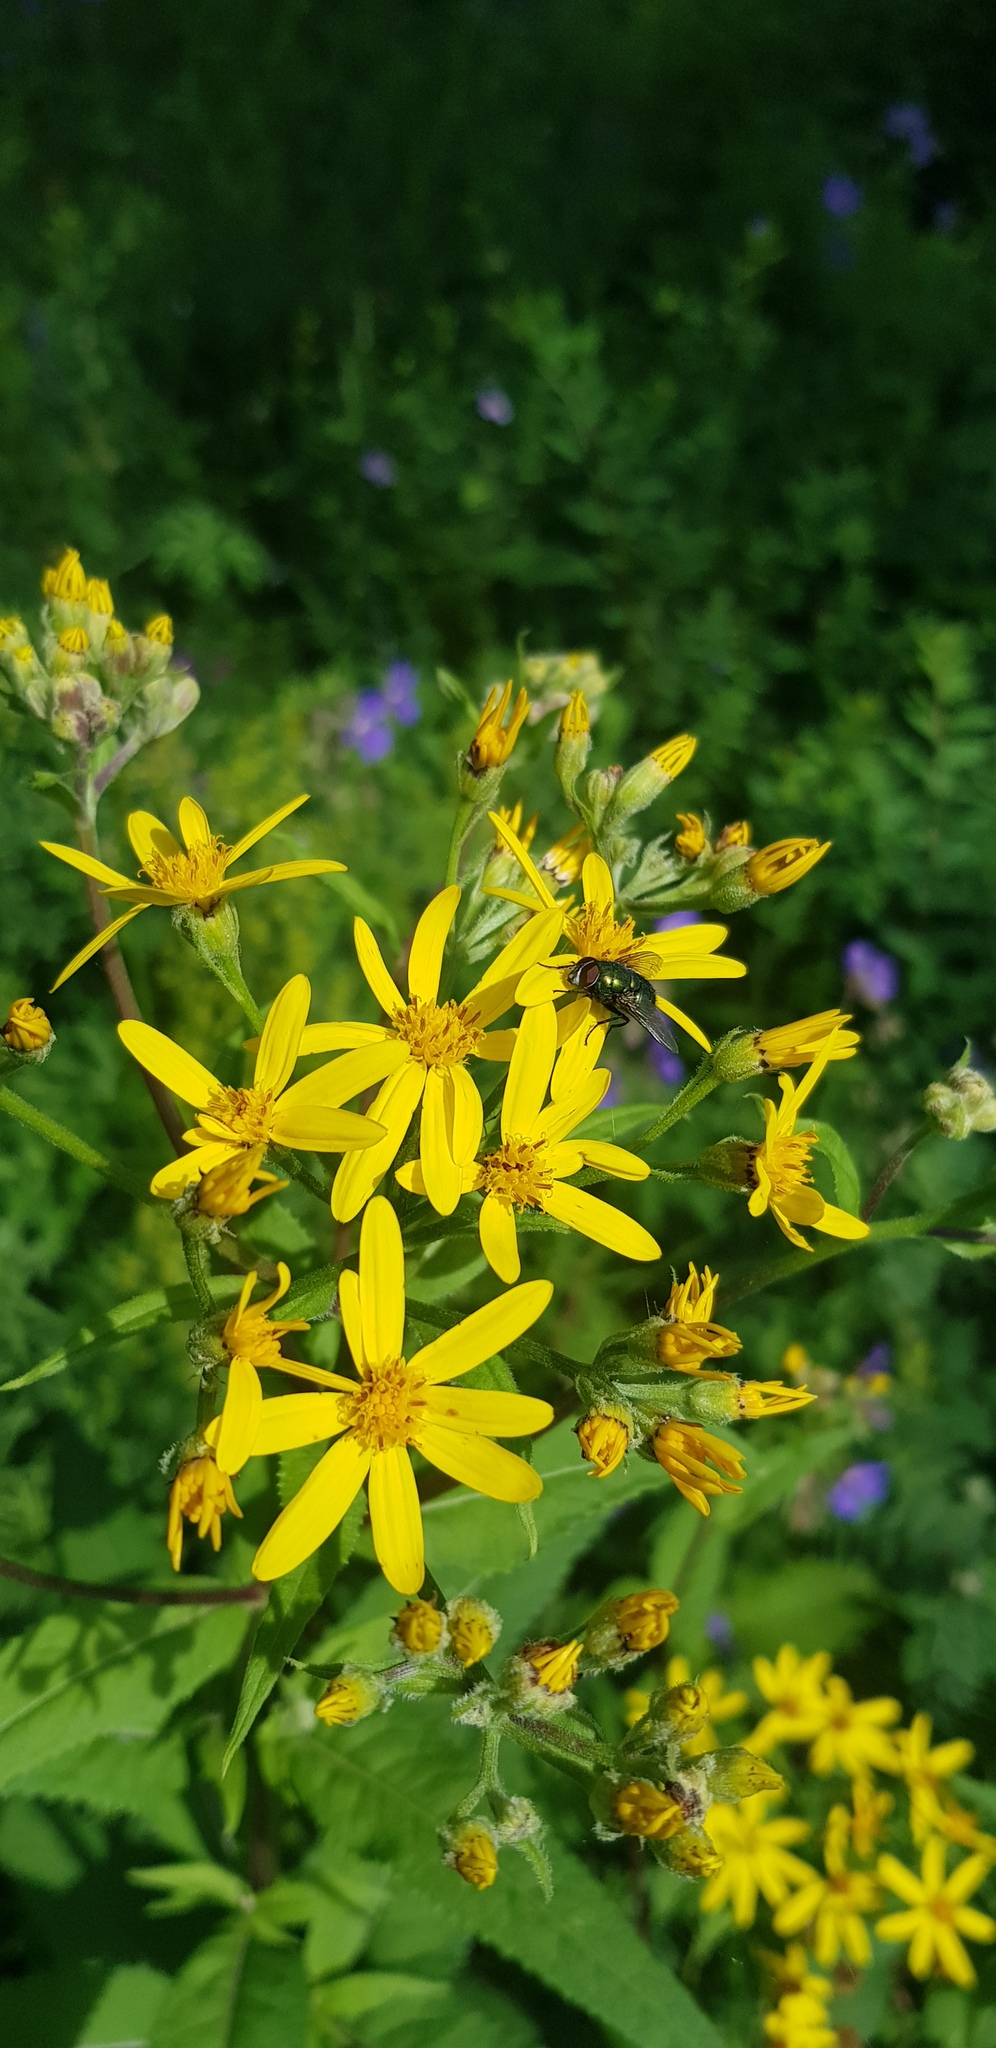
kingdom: Plantae
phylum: Tracheophyta
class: Magnoliopsida
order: Asterales
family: Asteraceae
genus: Senecio
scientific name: Senecio nemorensis
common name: Alpine ragwort
